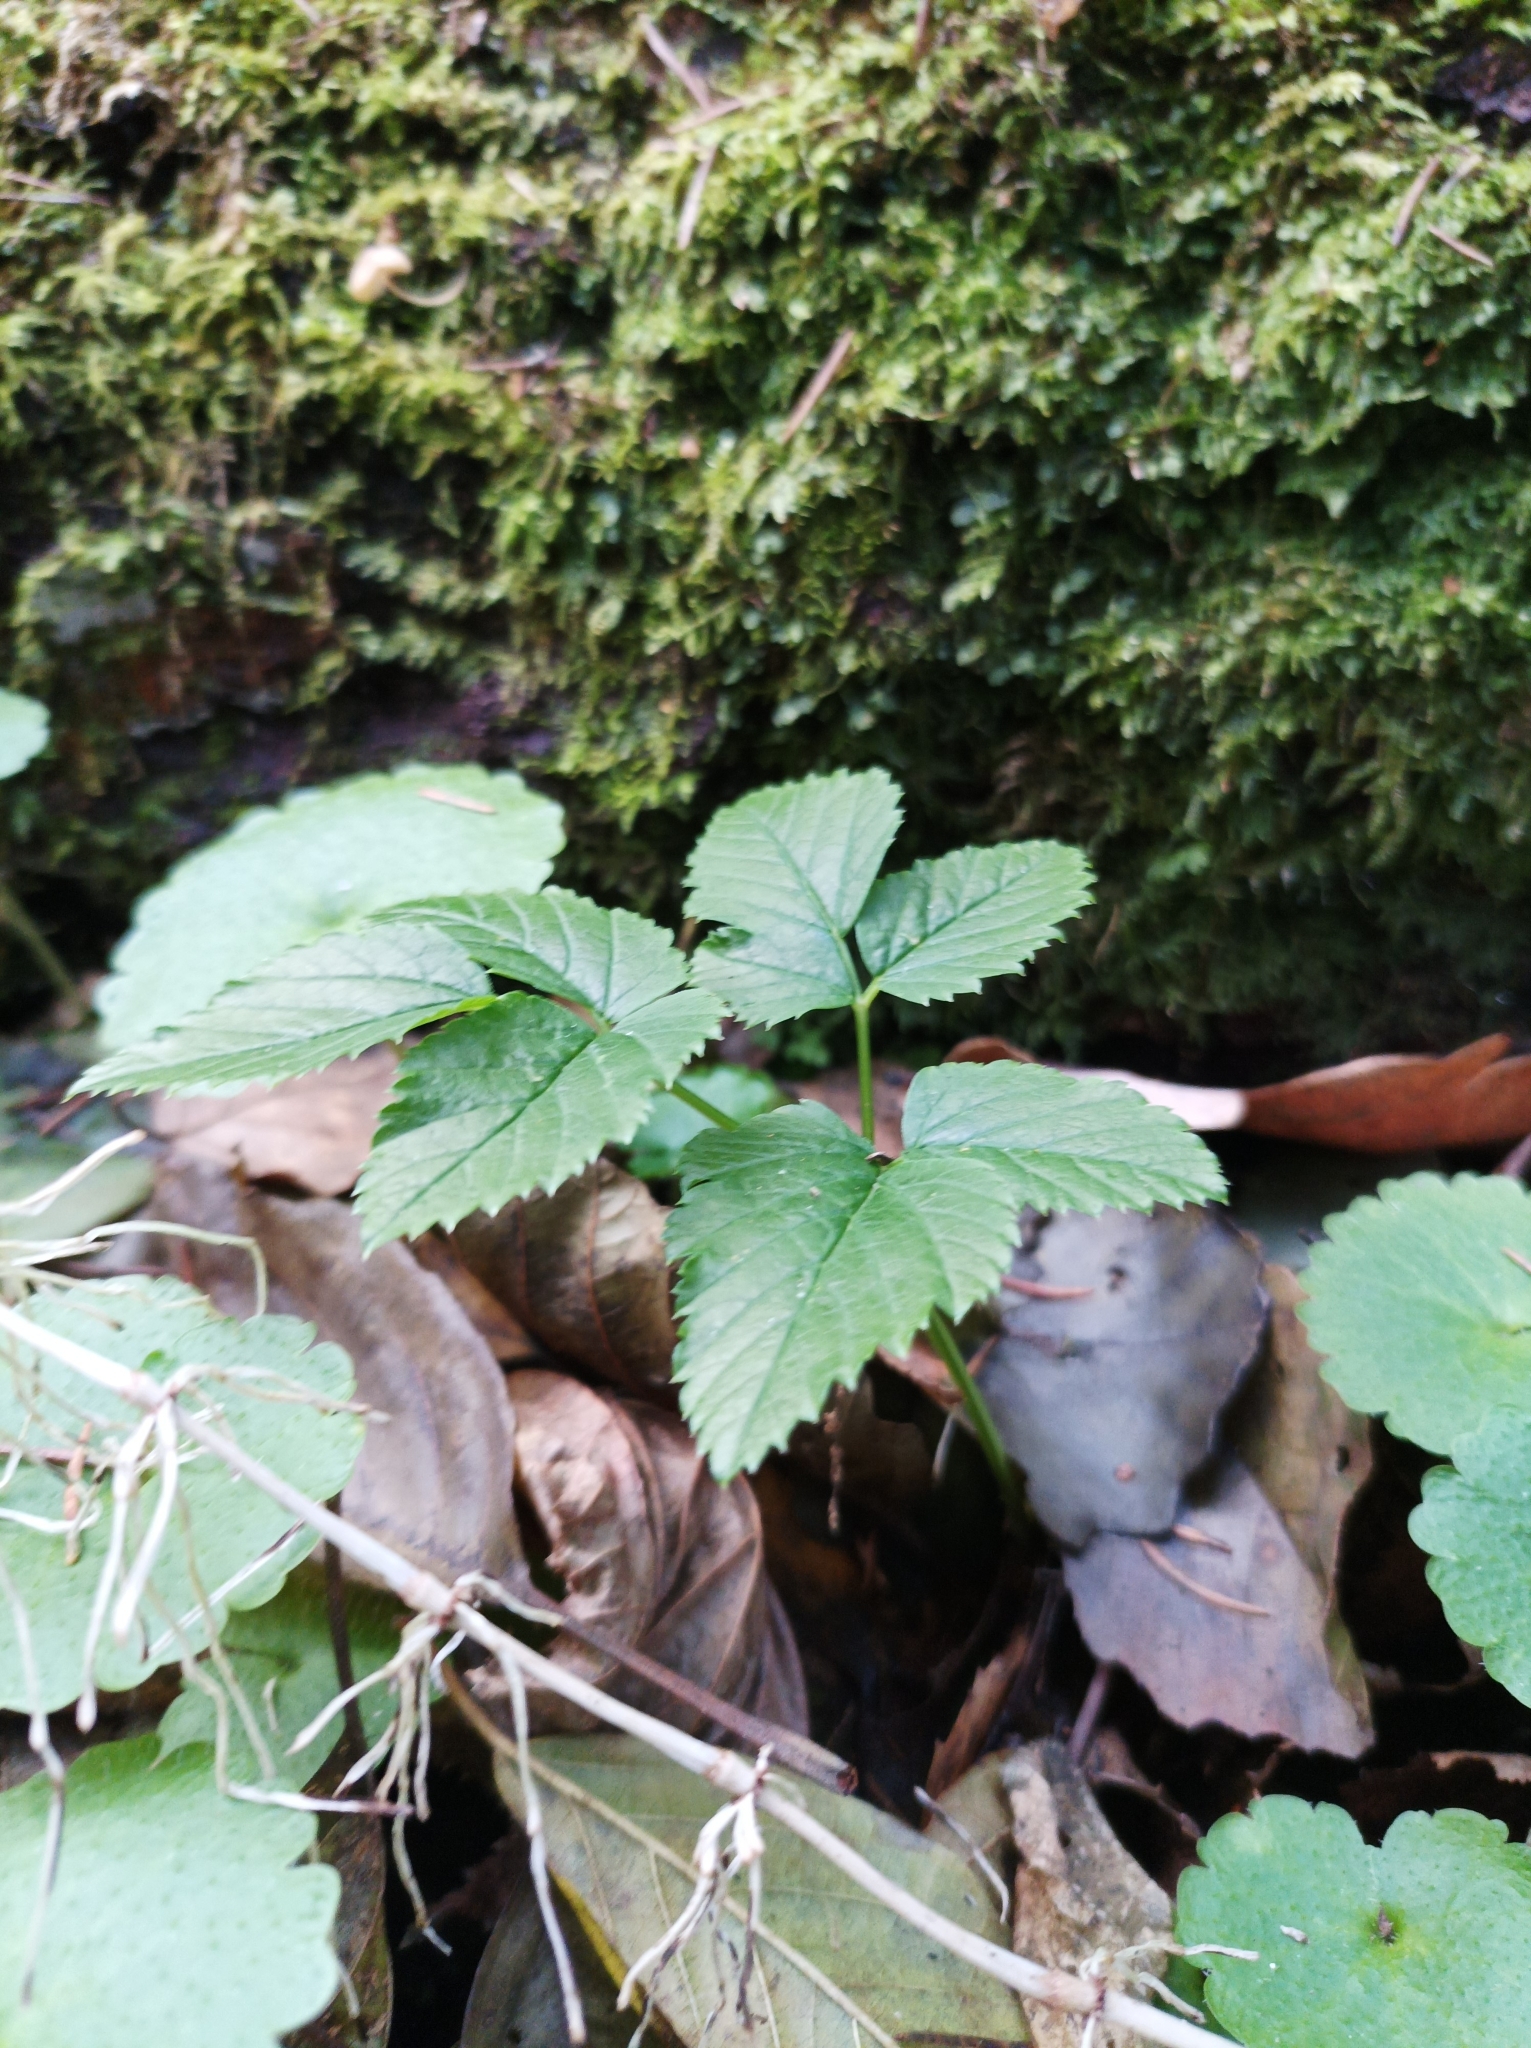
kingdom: Plantae
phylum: Tracheophyta
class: Magnoliopsida
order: Apiales
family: Apiaceae
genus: Aegopodium
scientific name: Aegopodium podagraria
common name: Ground-elder
